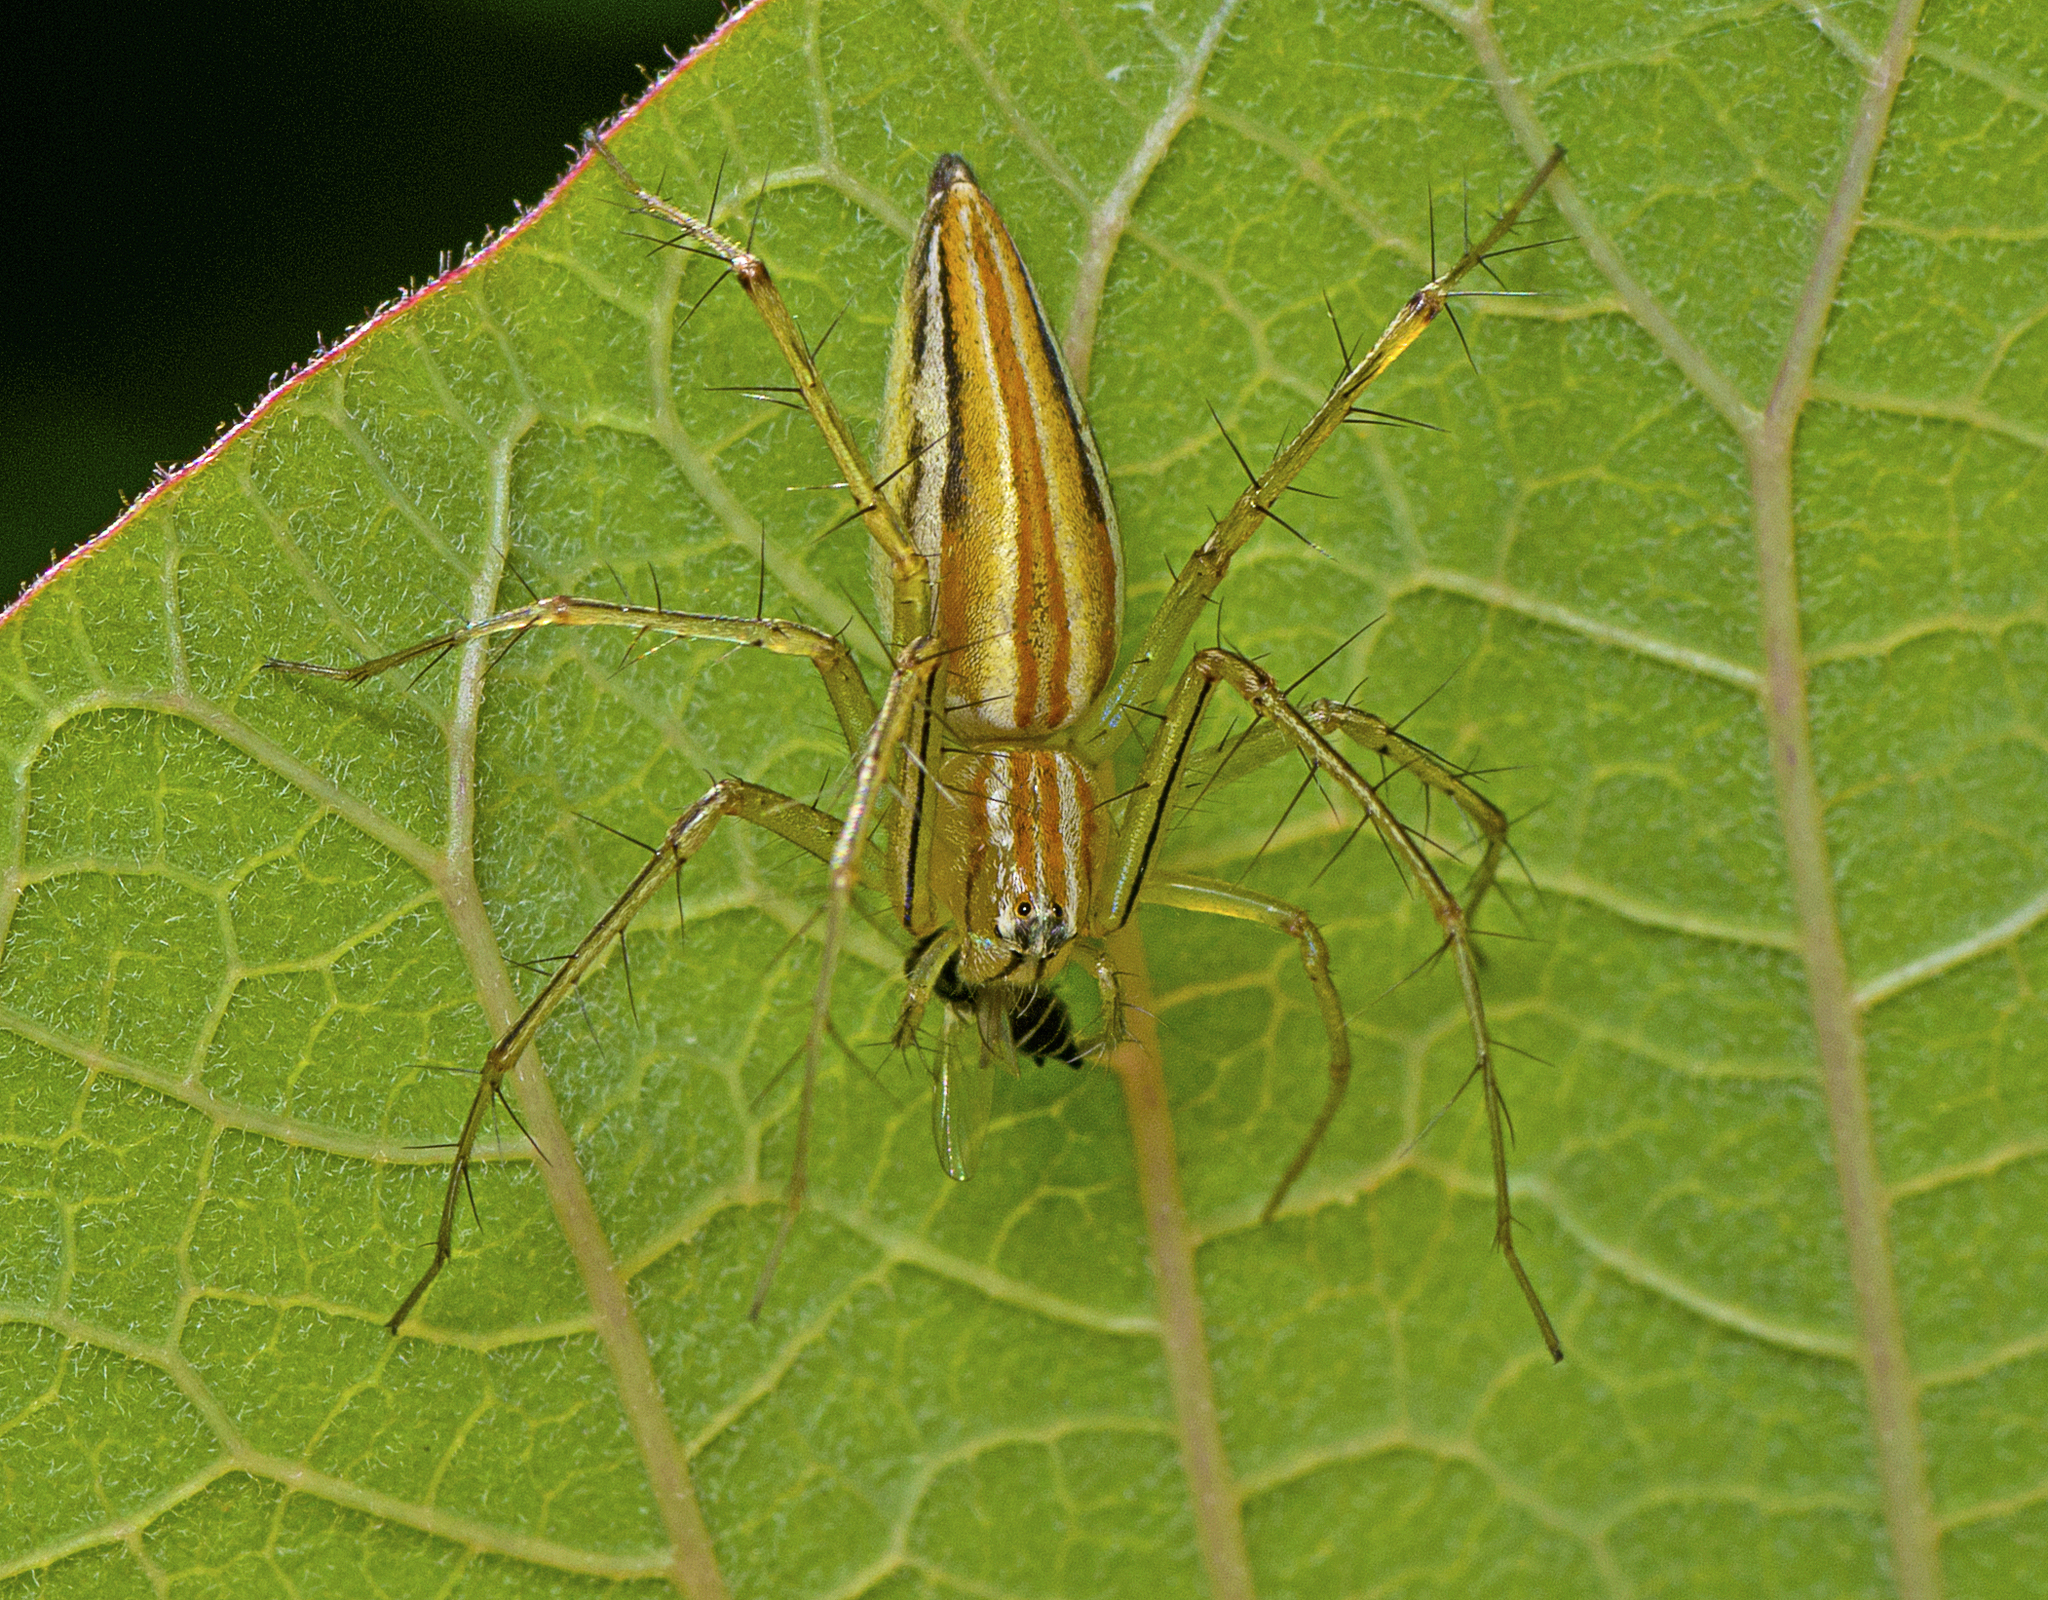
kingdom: Animalia
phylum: Arthropoda
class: Arachnida
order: Araneae
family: Oxyopidae
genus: Oxyopes
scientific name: Oxyopes macilentus
